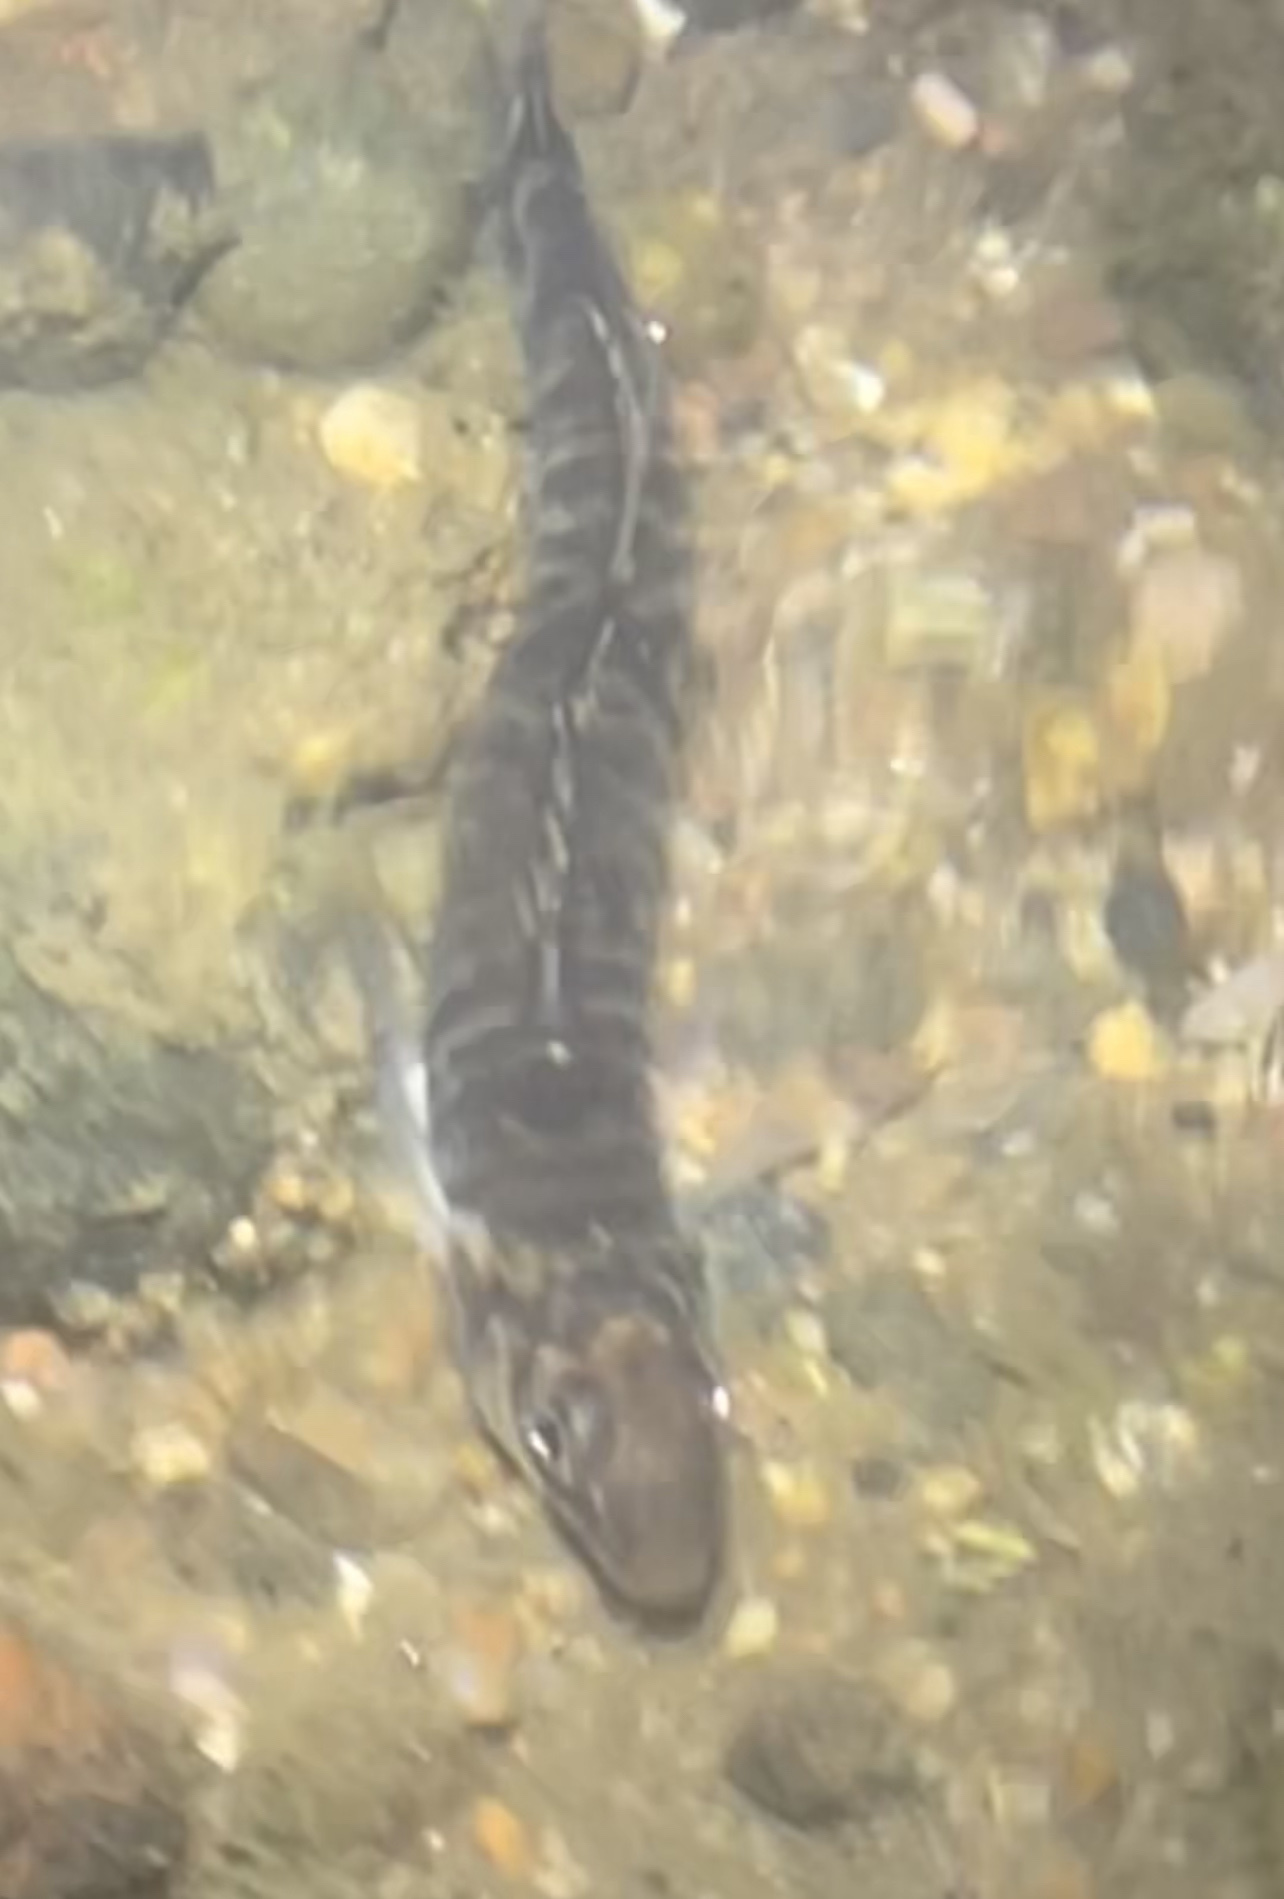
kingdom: Animalia
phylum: Chordata
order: Perciformes
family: Percidae
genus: Percina
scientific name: Percina caprodes
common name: Logperch
